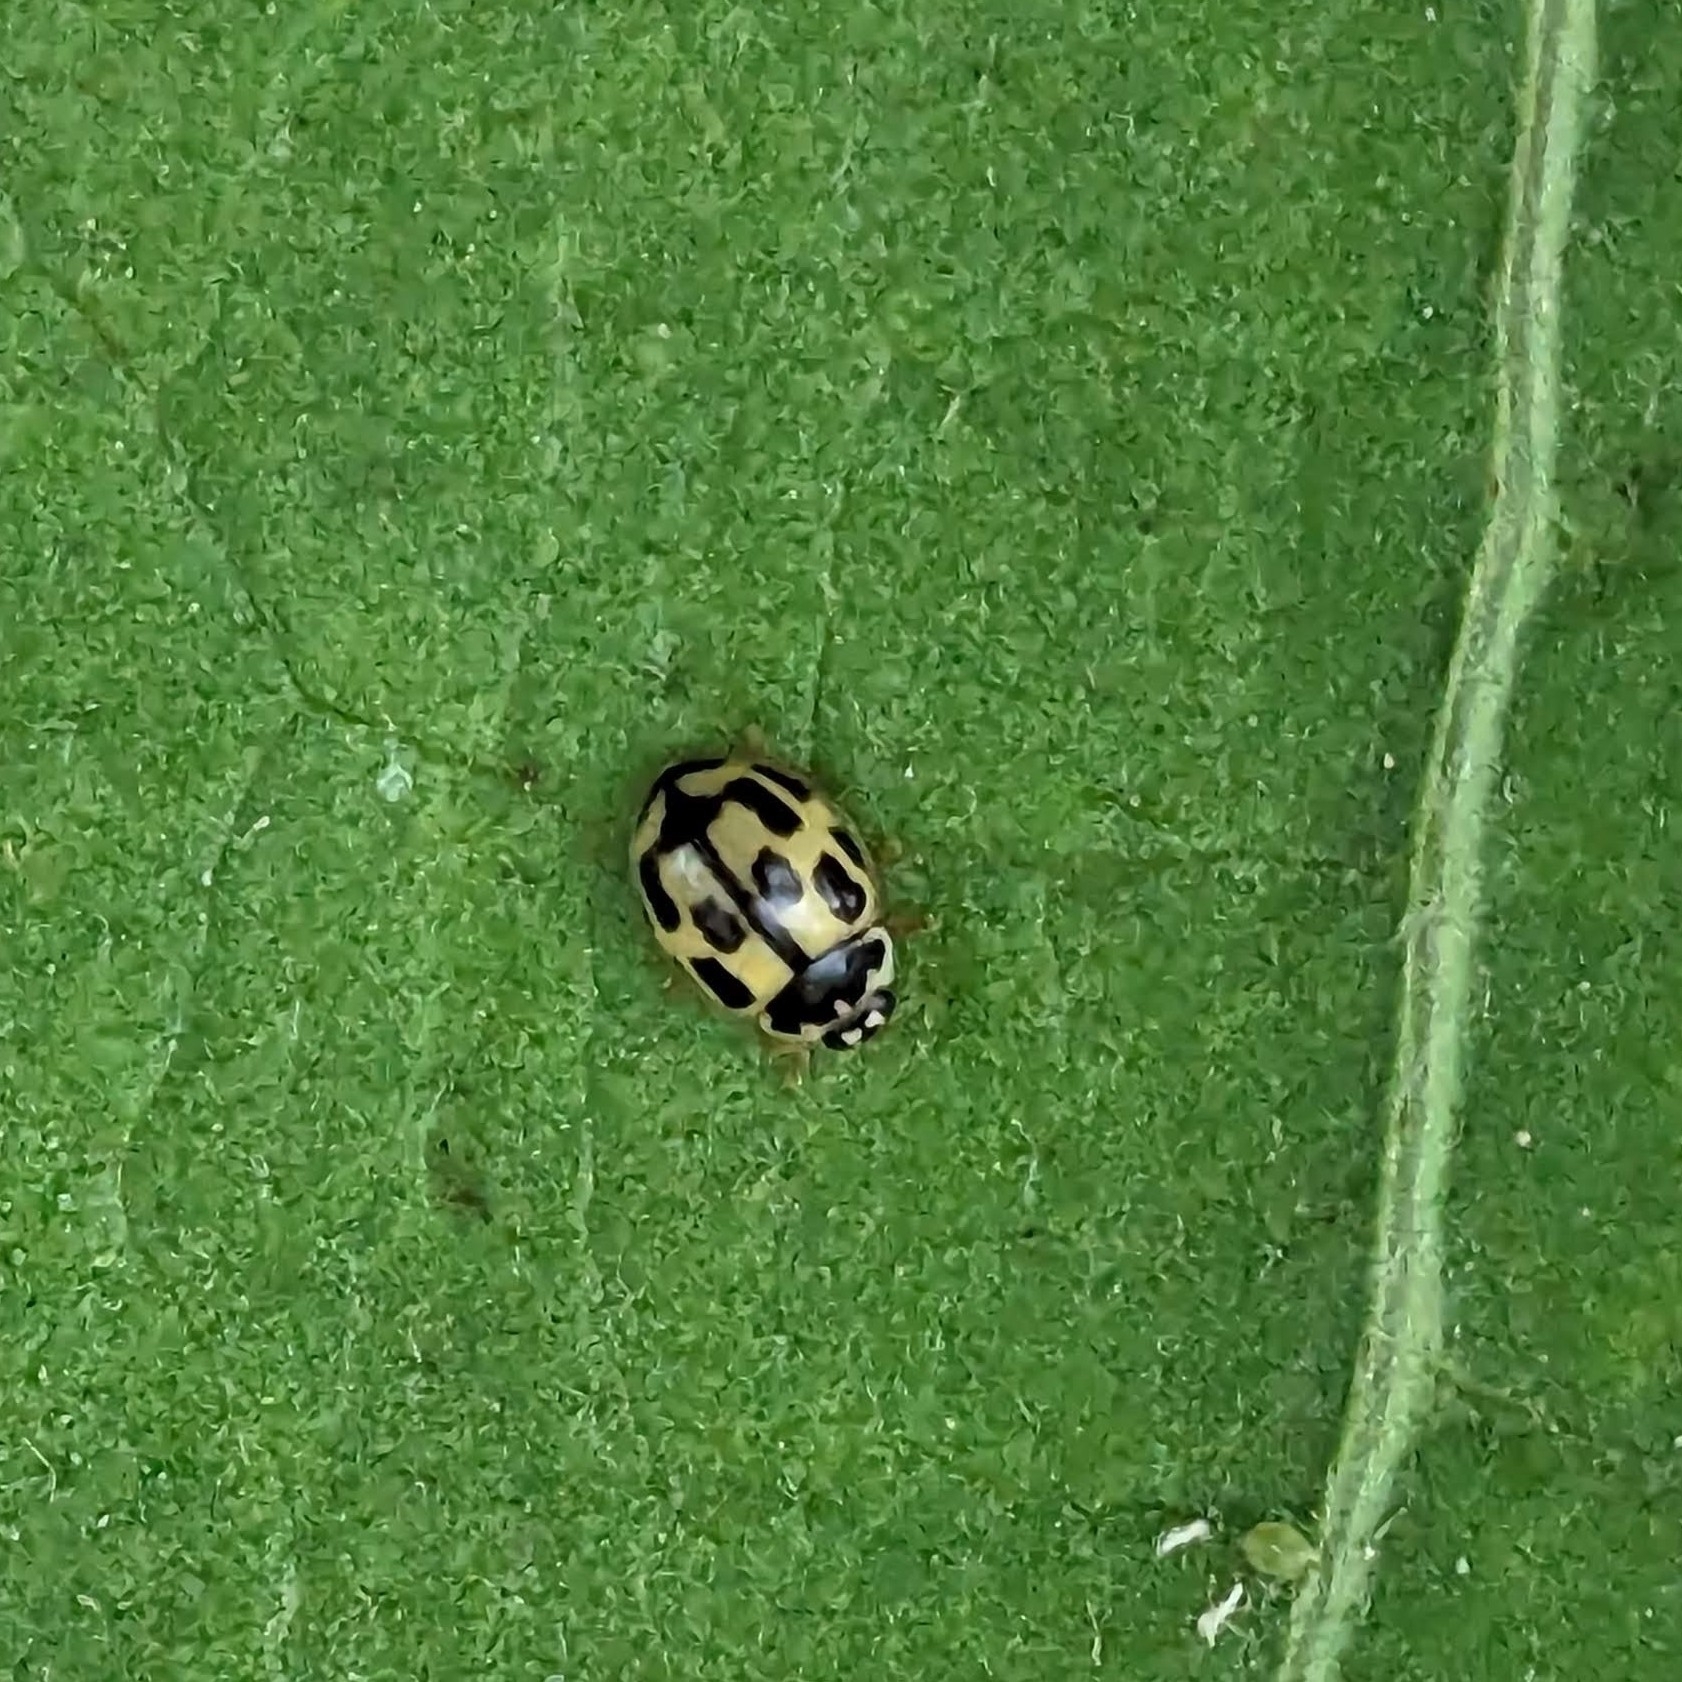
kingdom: Animalia
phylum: Arthropoda
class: Insecta
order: Coleoptera
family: Coccinellidae
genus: Propylaea
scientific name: Propylaea quatuordecimpunctata
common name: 14-spotted ladybird beetle
